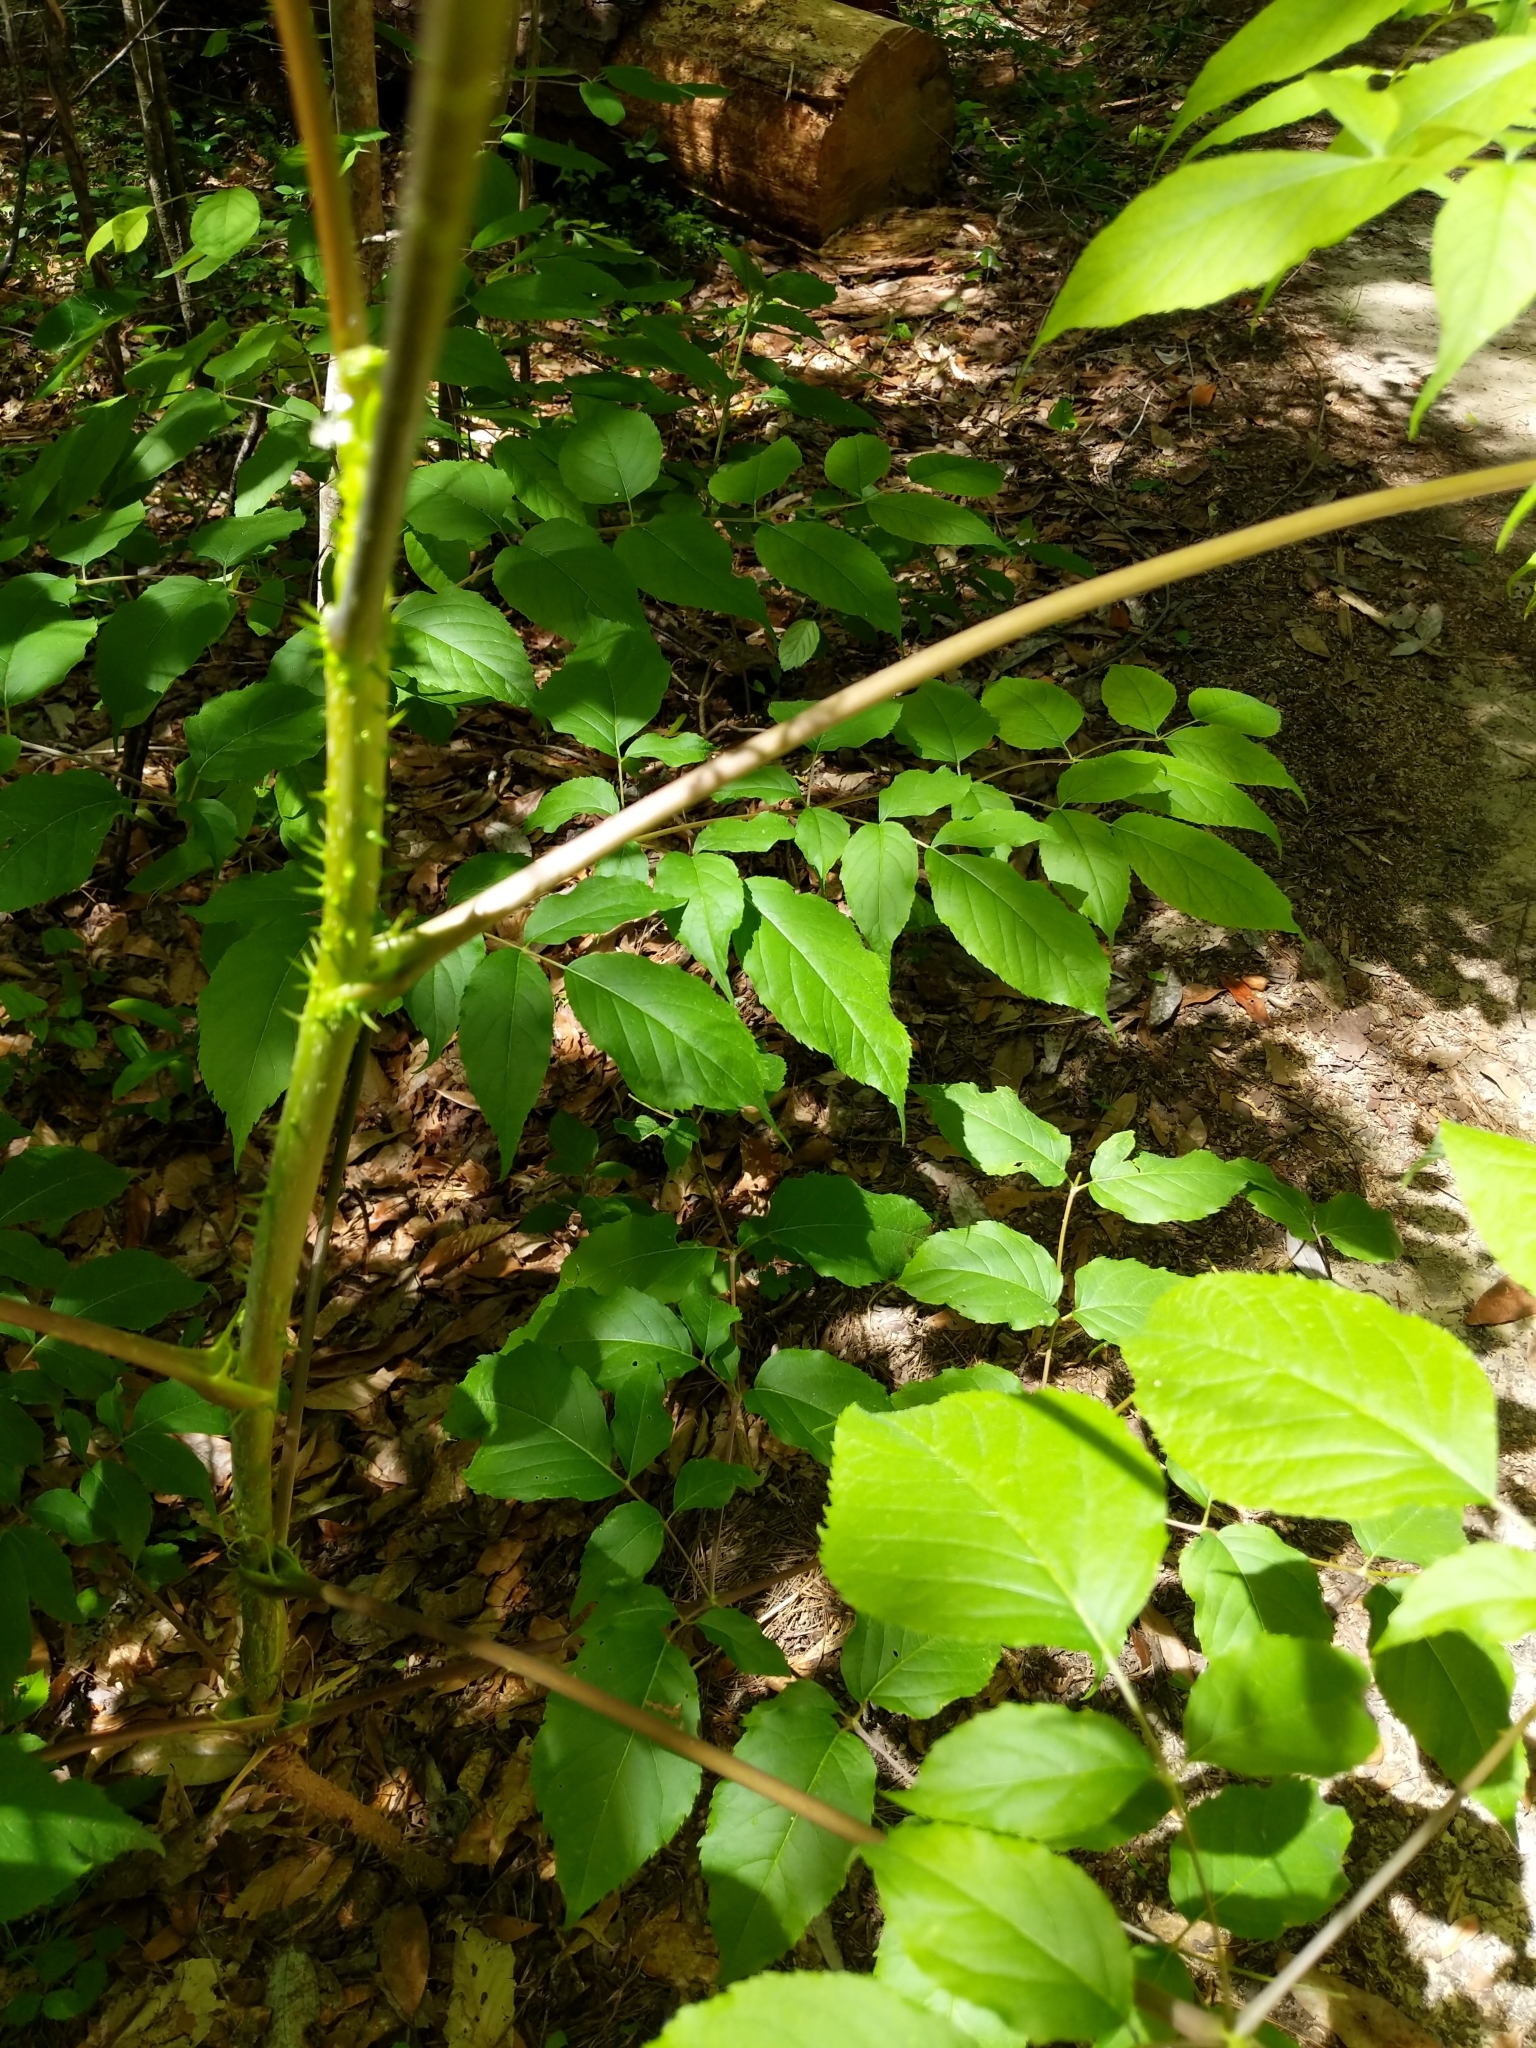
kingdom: Plantae
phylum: Tracheophyta
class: Magnoliopsida
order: Apiales
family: Araliaceae
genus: Aralia
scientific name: Aralia spinosa
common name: Hercules'-club
